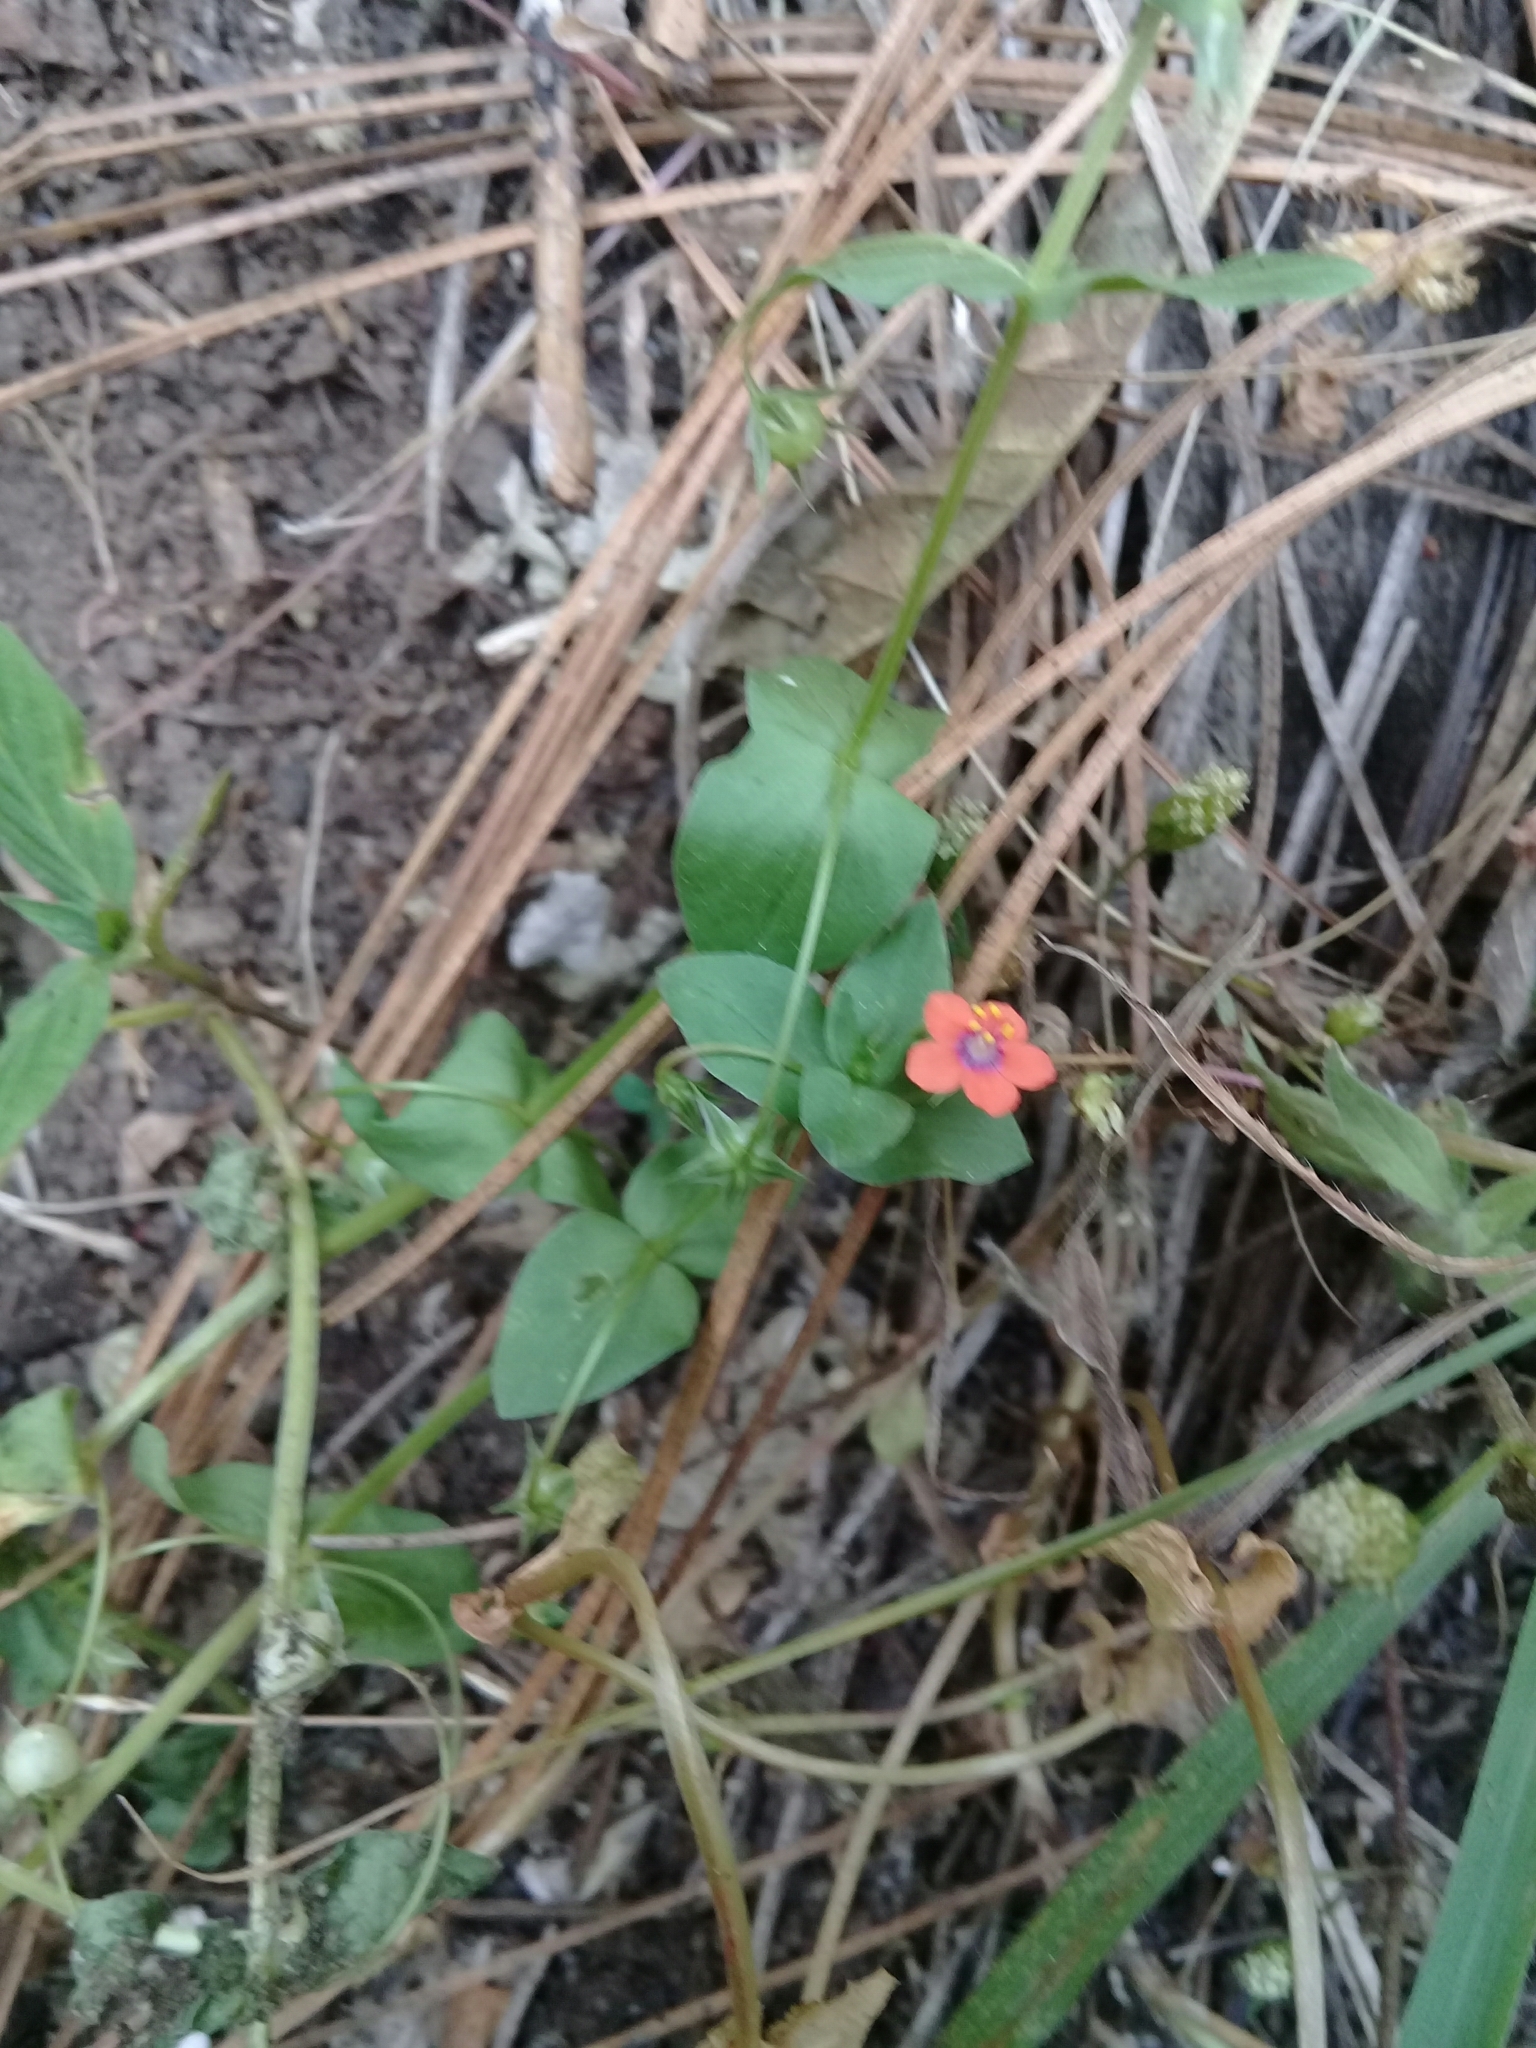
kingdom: Plantae
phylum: Tracheophyta
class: Magnoliopsida
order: Ericales
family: Primulaceae
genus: Lysimachia
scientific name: Lysimachia arvensis
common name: Scarlet pimpernel
